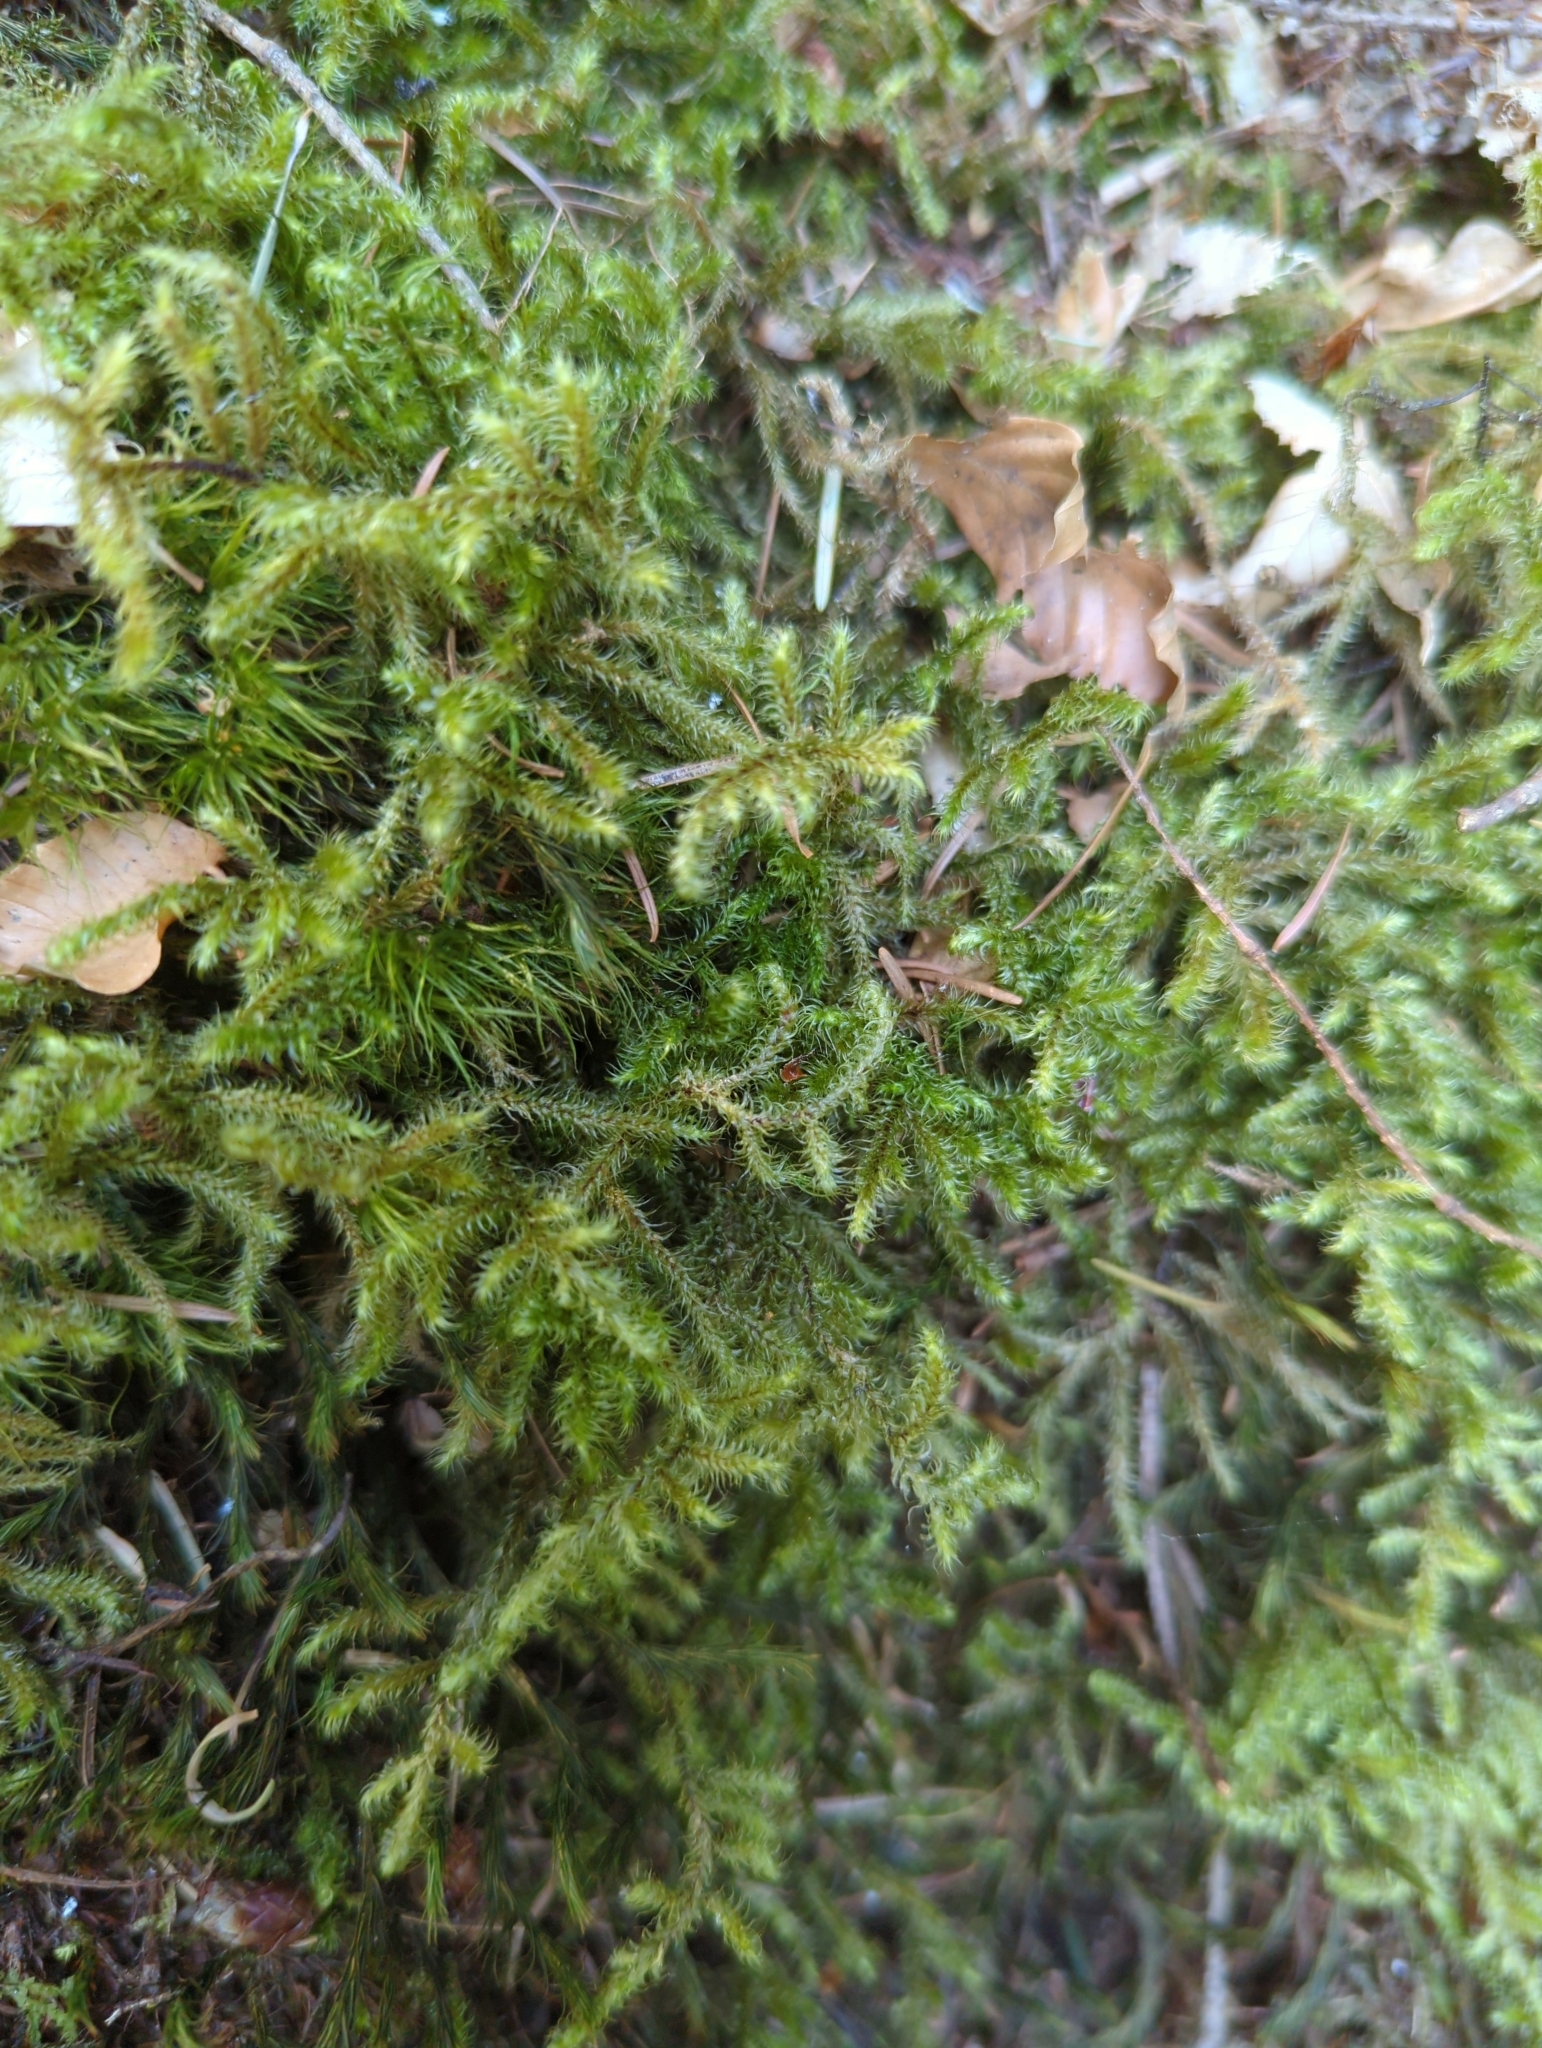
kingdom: Plantae
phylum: Bryophyta
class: Bryopsida
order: Hypnales
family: Hylocomiaceae
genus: Rhytidiadelphus
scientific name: Rhytidiadelphus loreus
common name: Lanky moss
